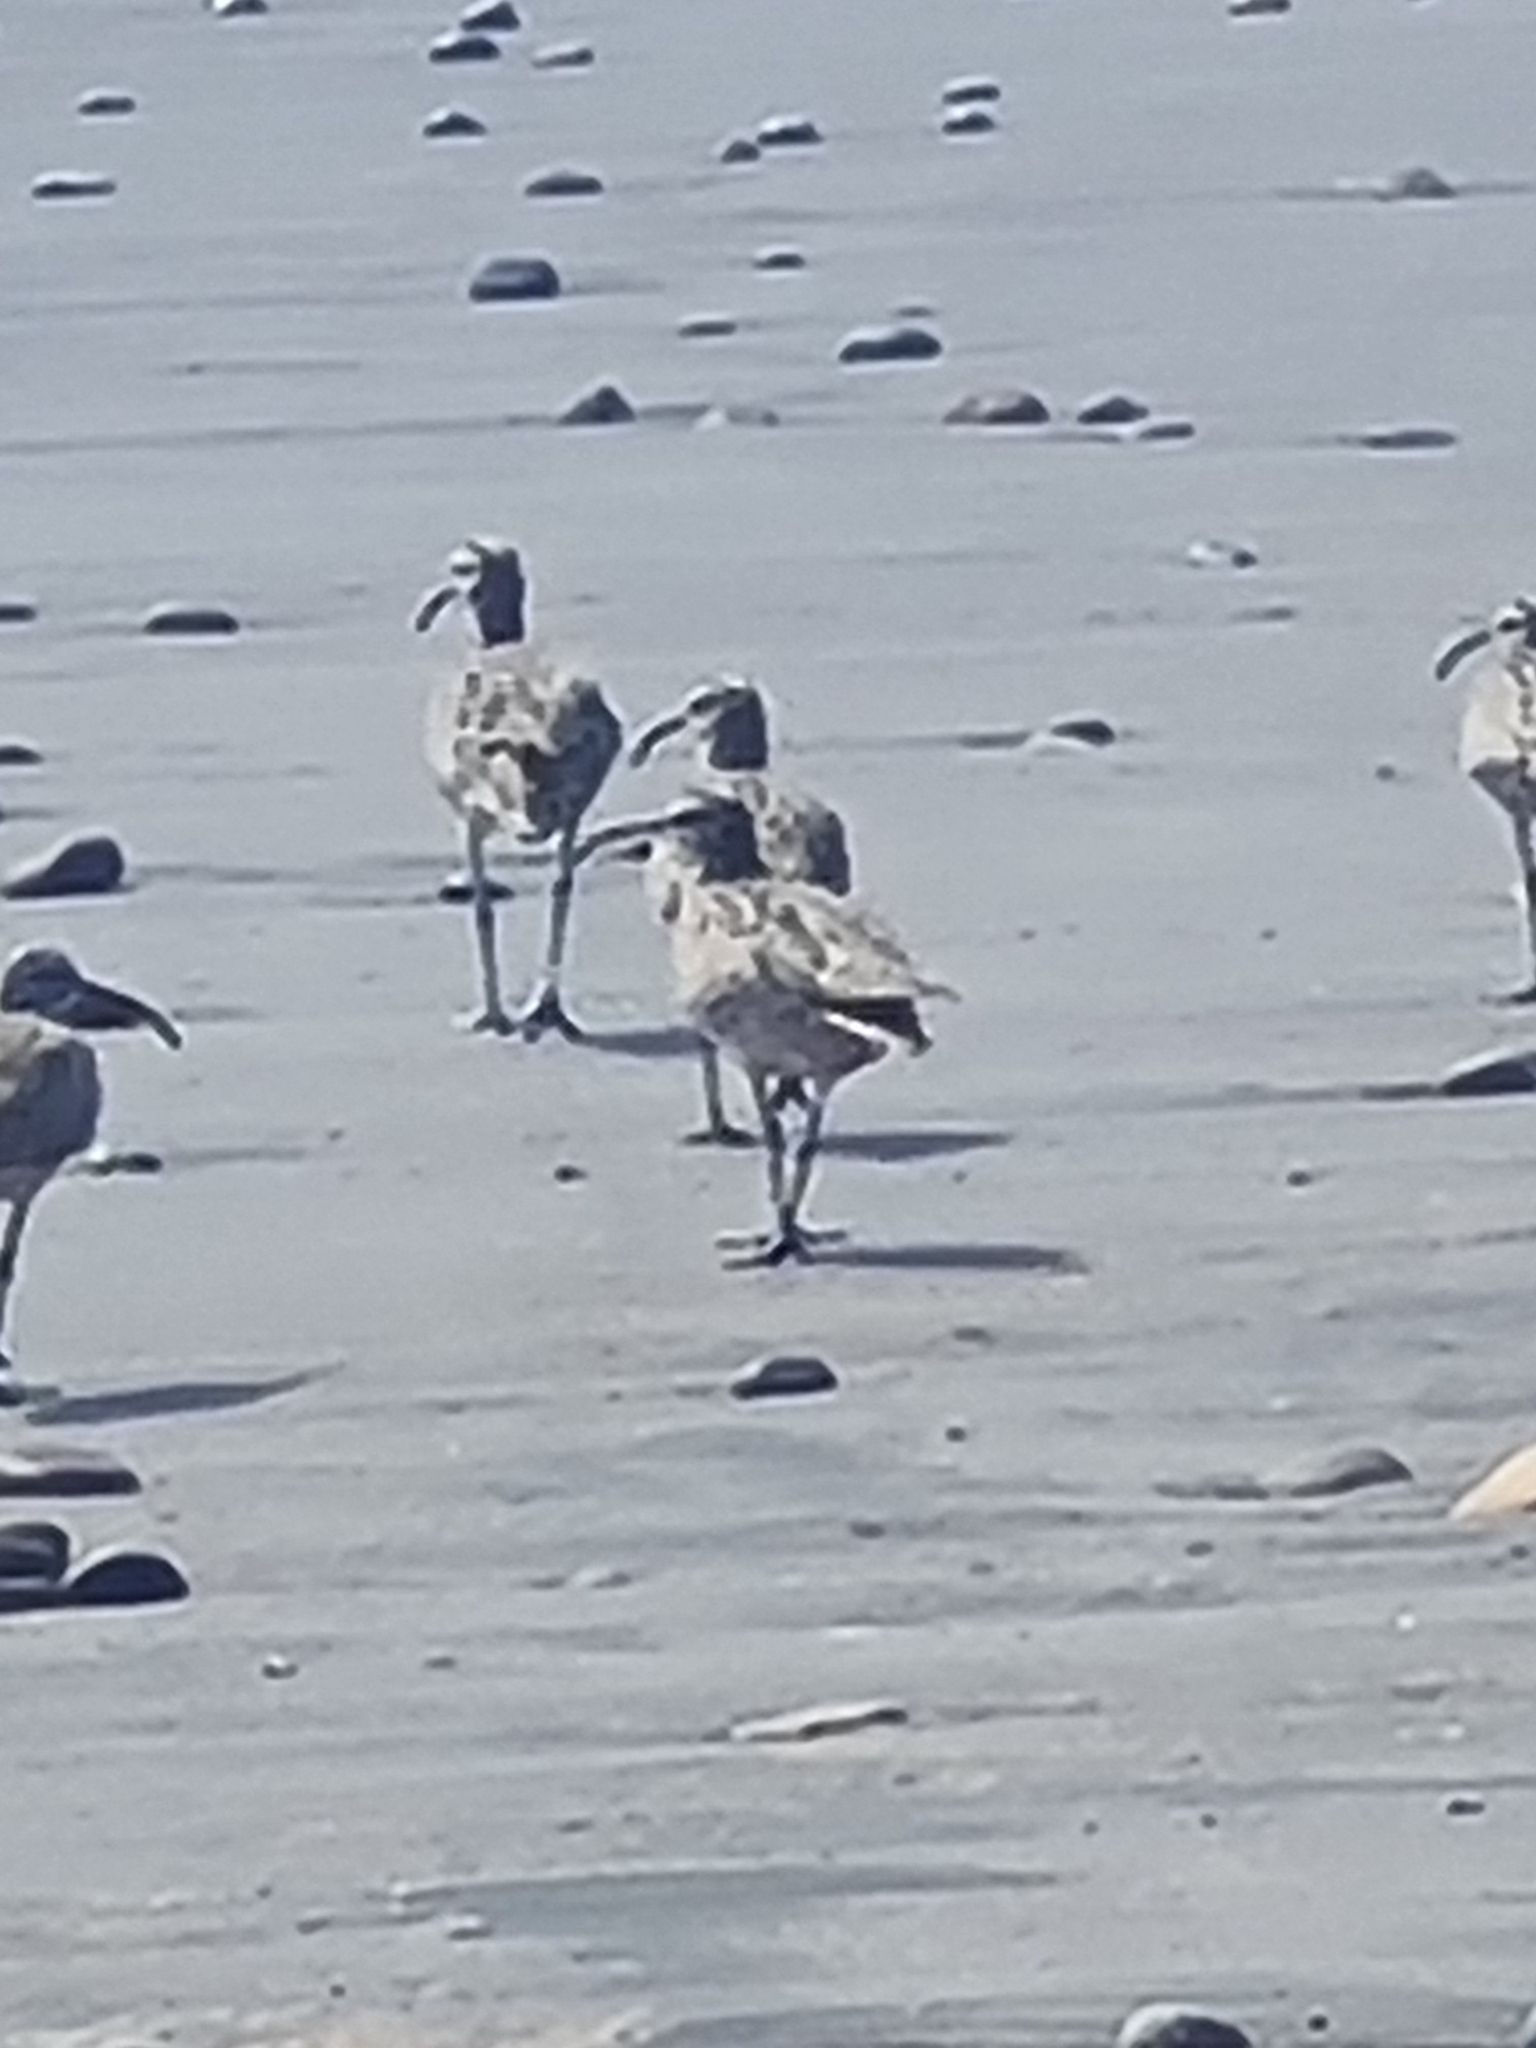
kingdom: Animalia
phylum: Chordata
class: Aves
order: Charadriiformes
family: Scolopacidae
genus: Numenius
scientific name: Numenius phaeopus
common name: Whimbrel
